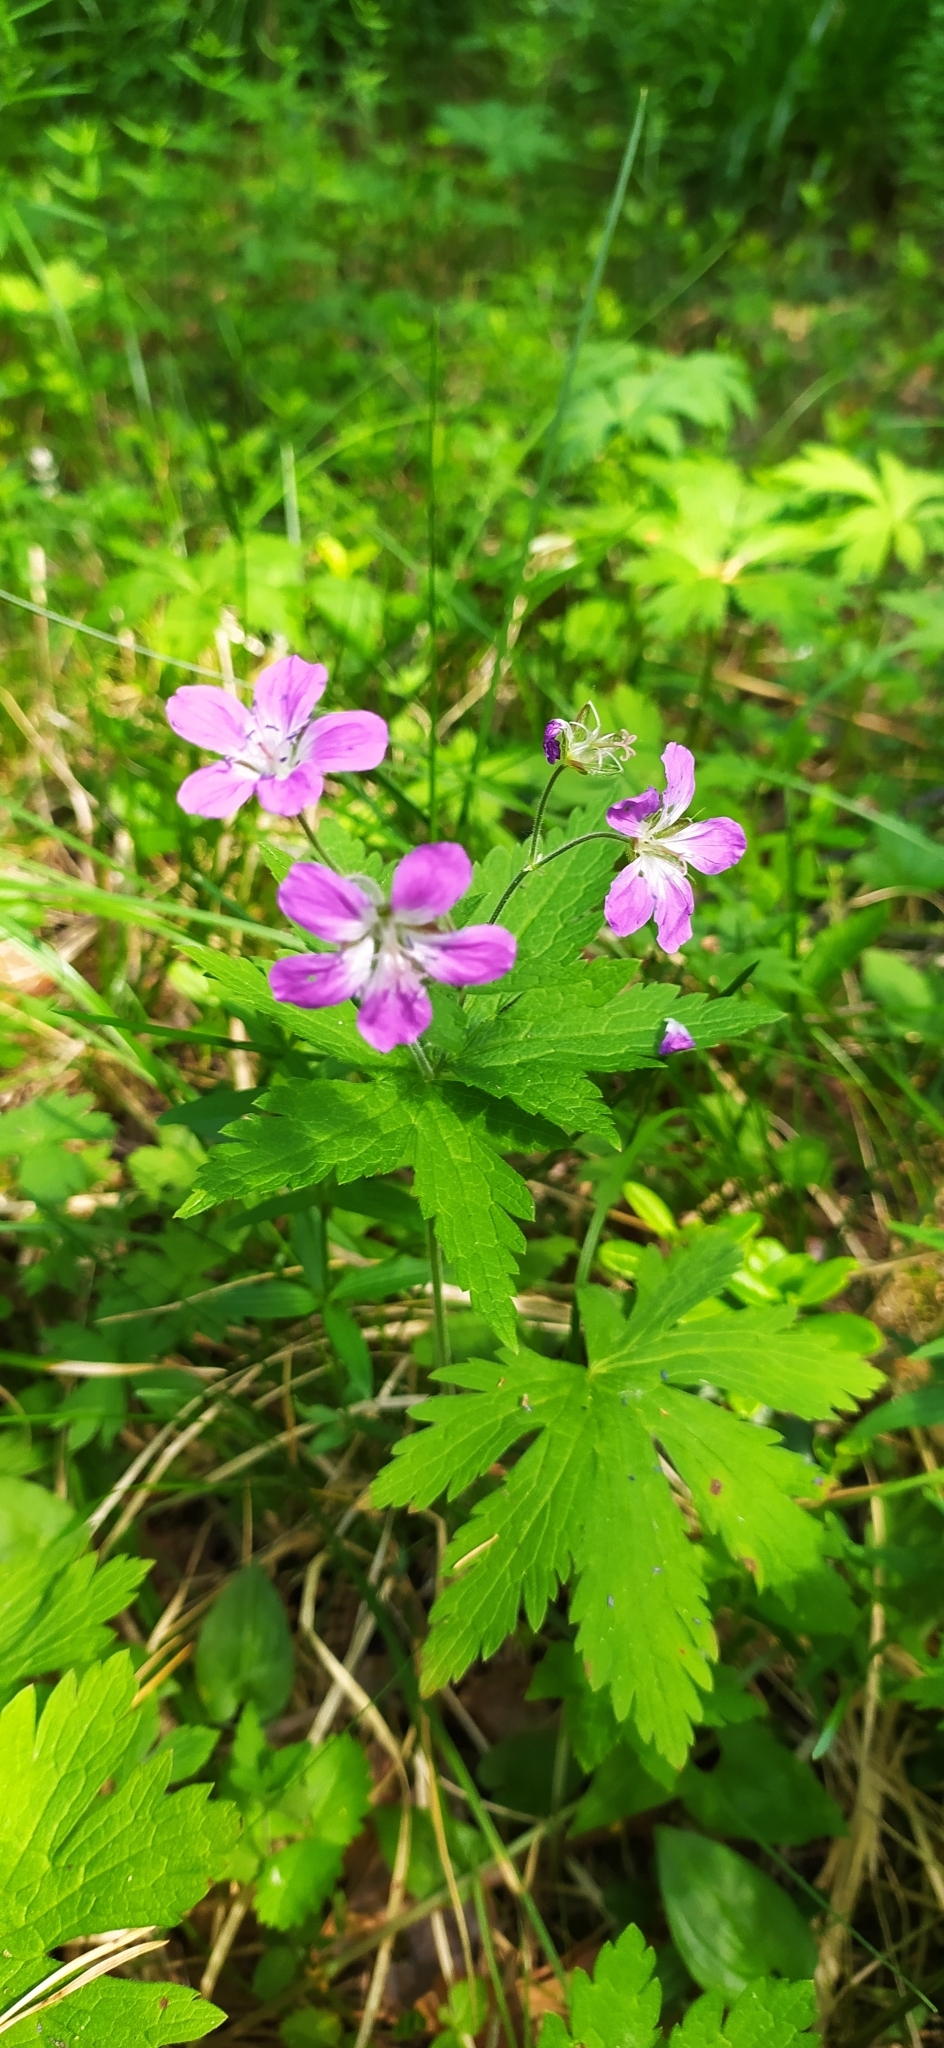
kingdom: Plantae
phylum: Tracheophyta
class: Magnoliopsida
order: Geraniales
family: Geraniaceae
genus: Geranium
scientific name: Geranium sylvaticum
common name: Wood crane's-bill
